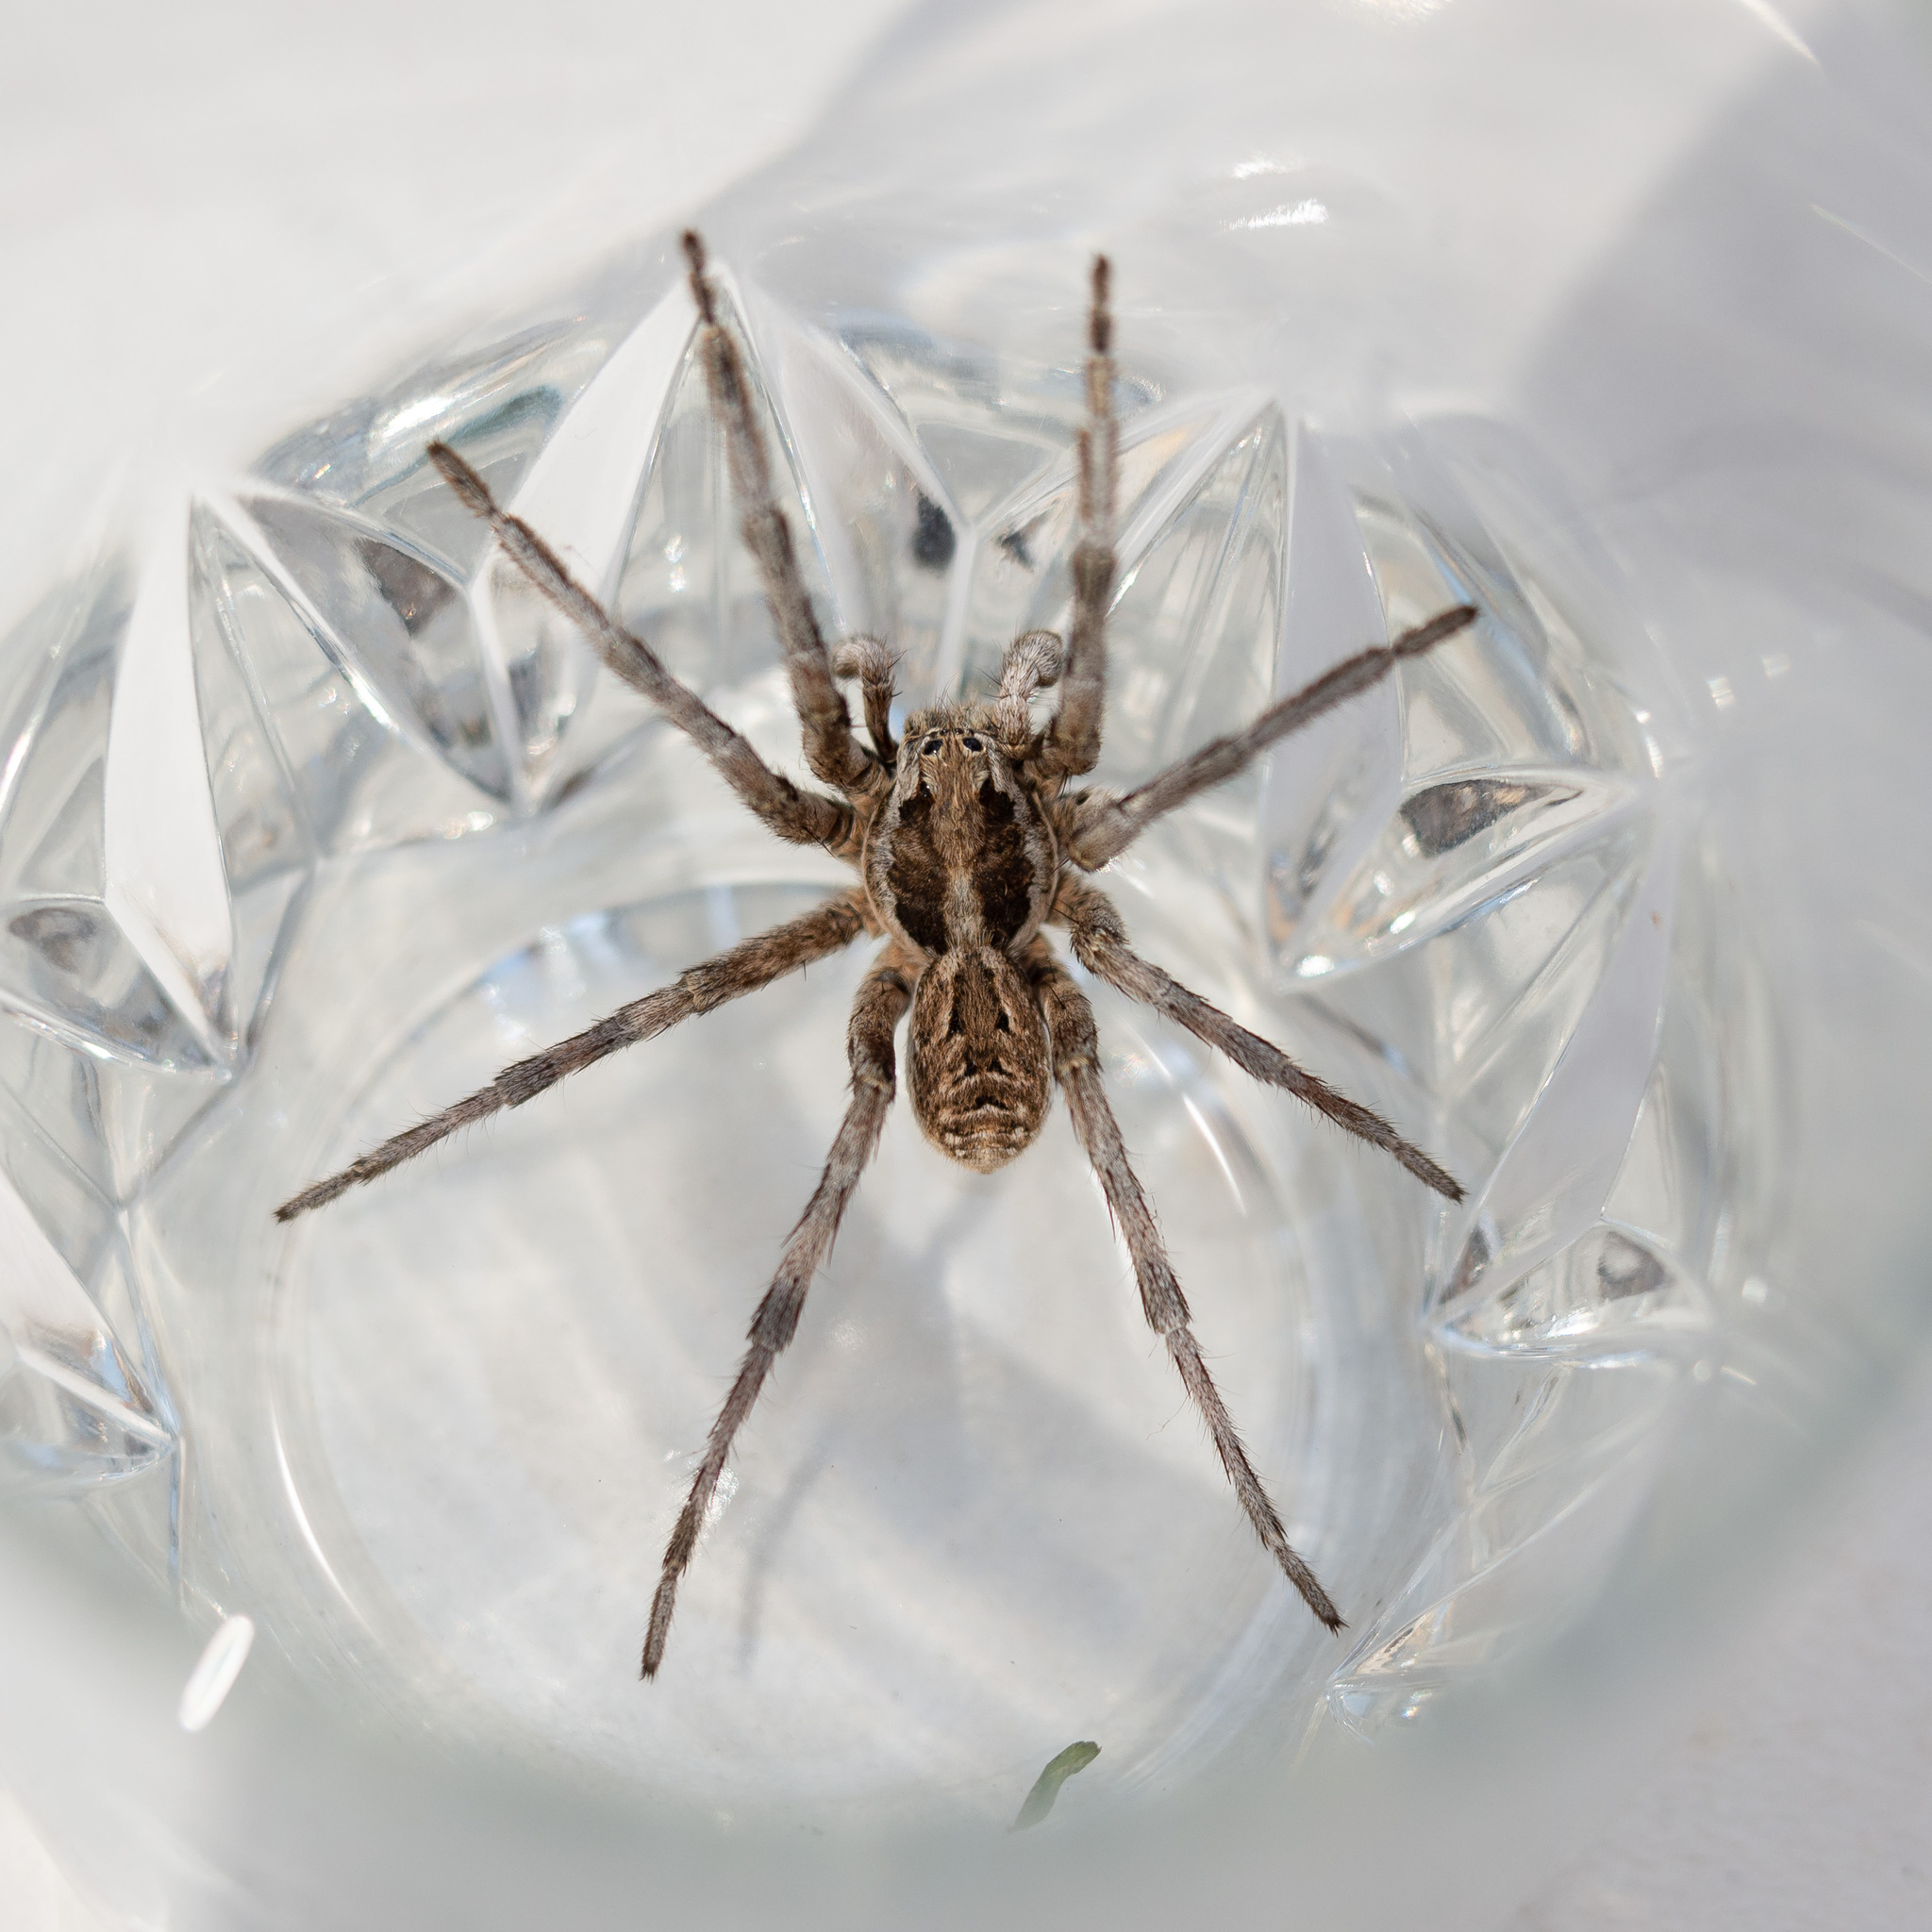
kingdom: Animalia
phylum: Arthropoda
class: Arachnida
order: Araneae
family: Lycosidae
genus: Lycosa
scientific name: Lycosa hispanica
